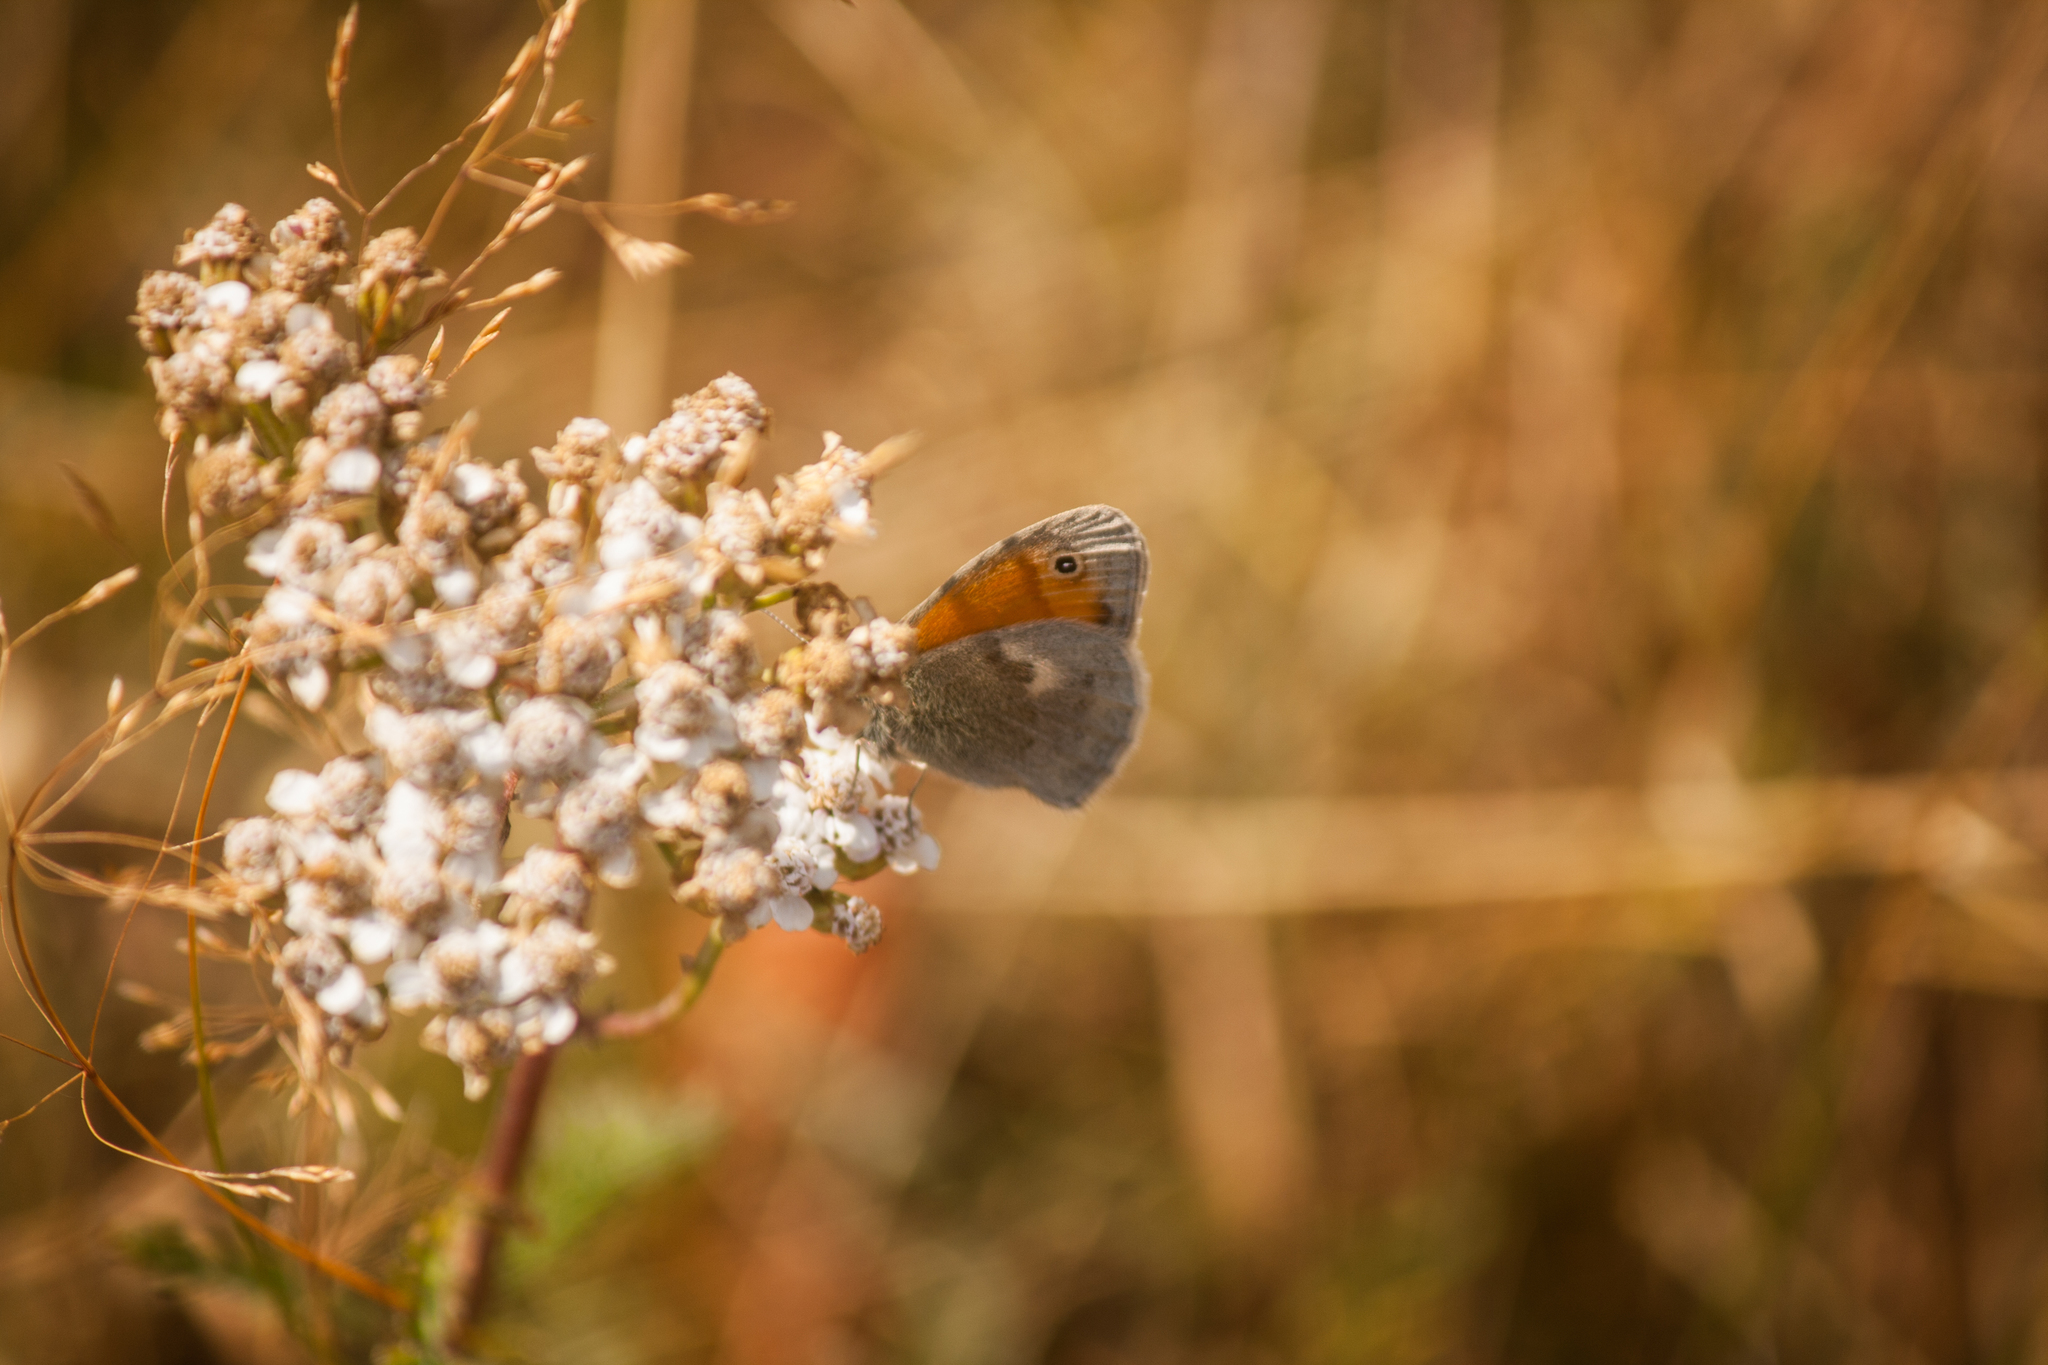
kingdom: Animalia
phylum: Arthropoda
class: Insecta
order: Lepidoptera
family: Nymphalidae
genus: Coenonympha
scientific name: Coenonympha pamphilus
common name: Small heath
